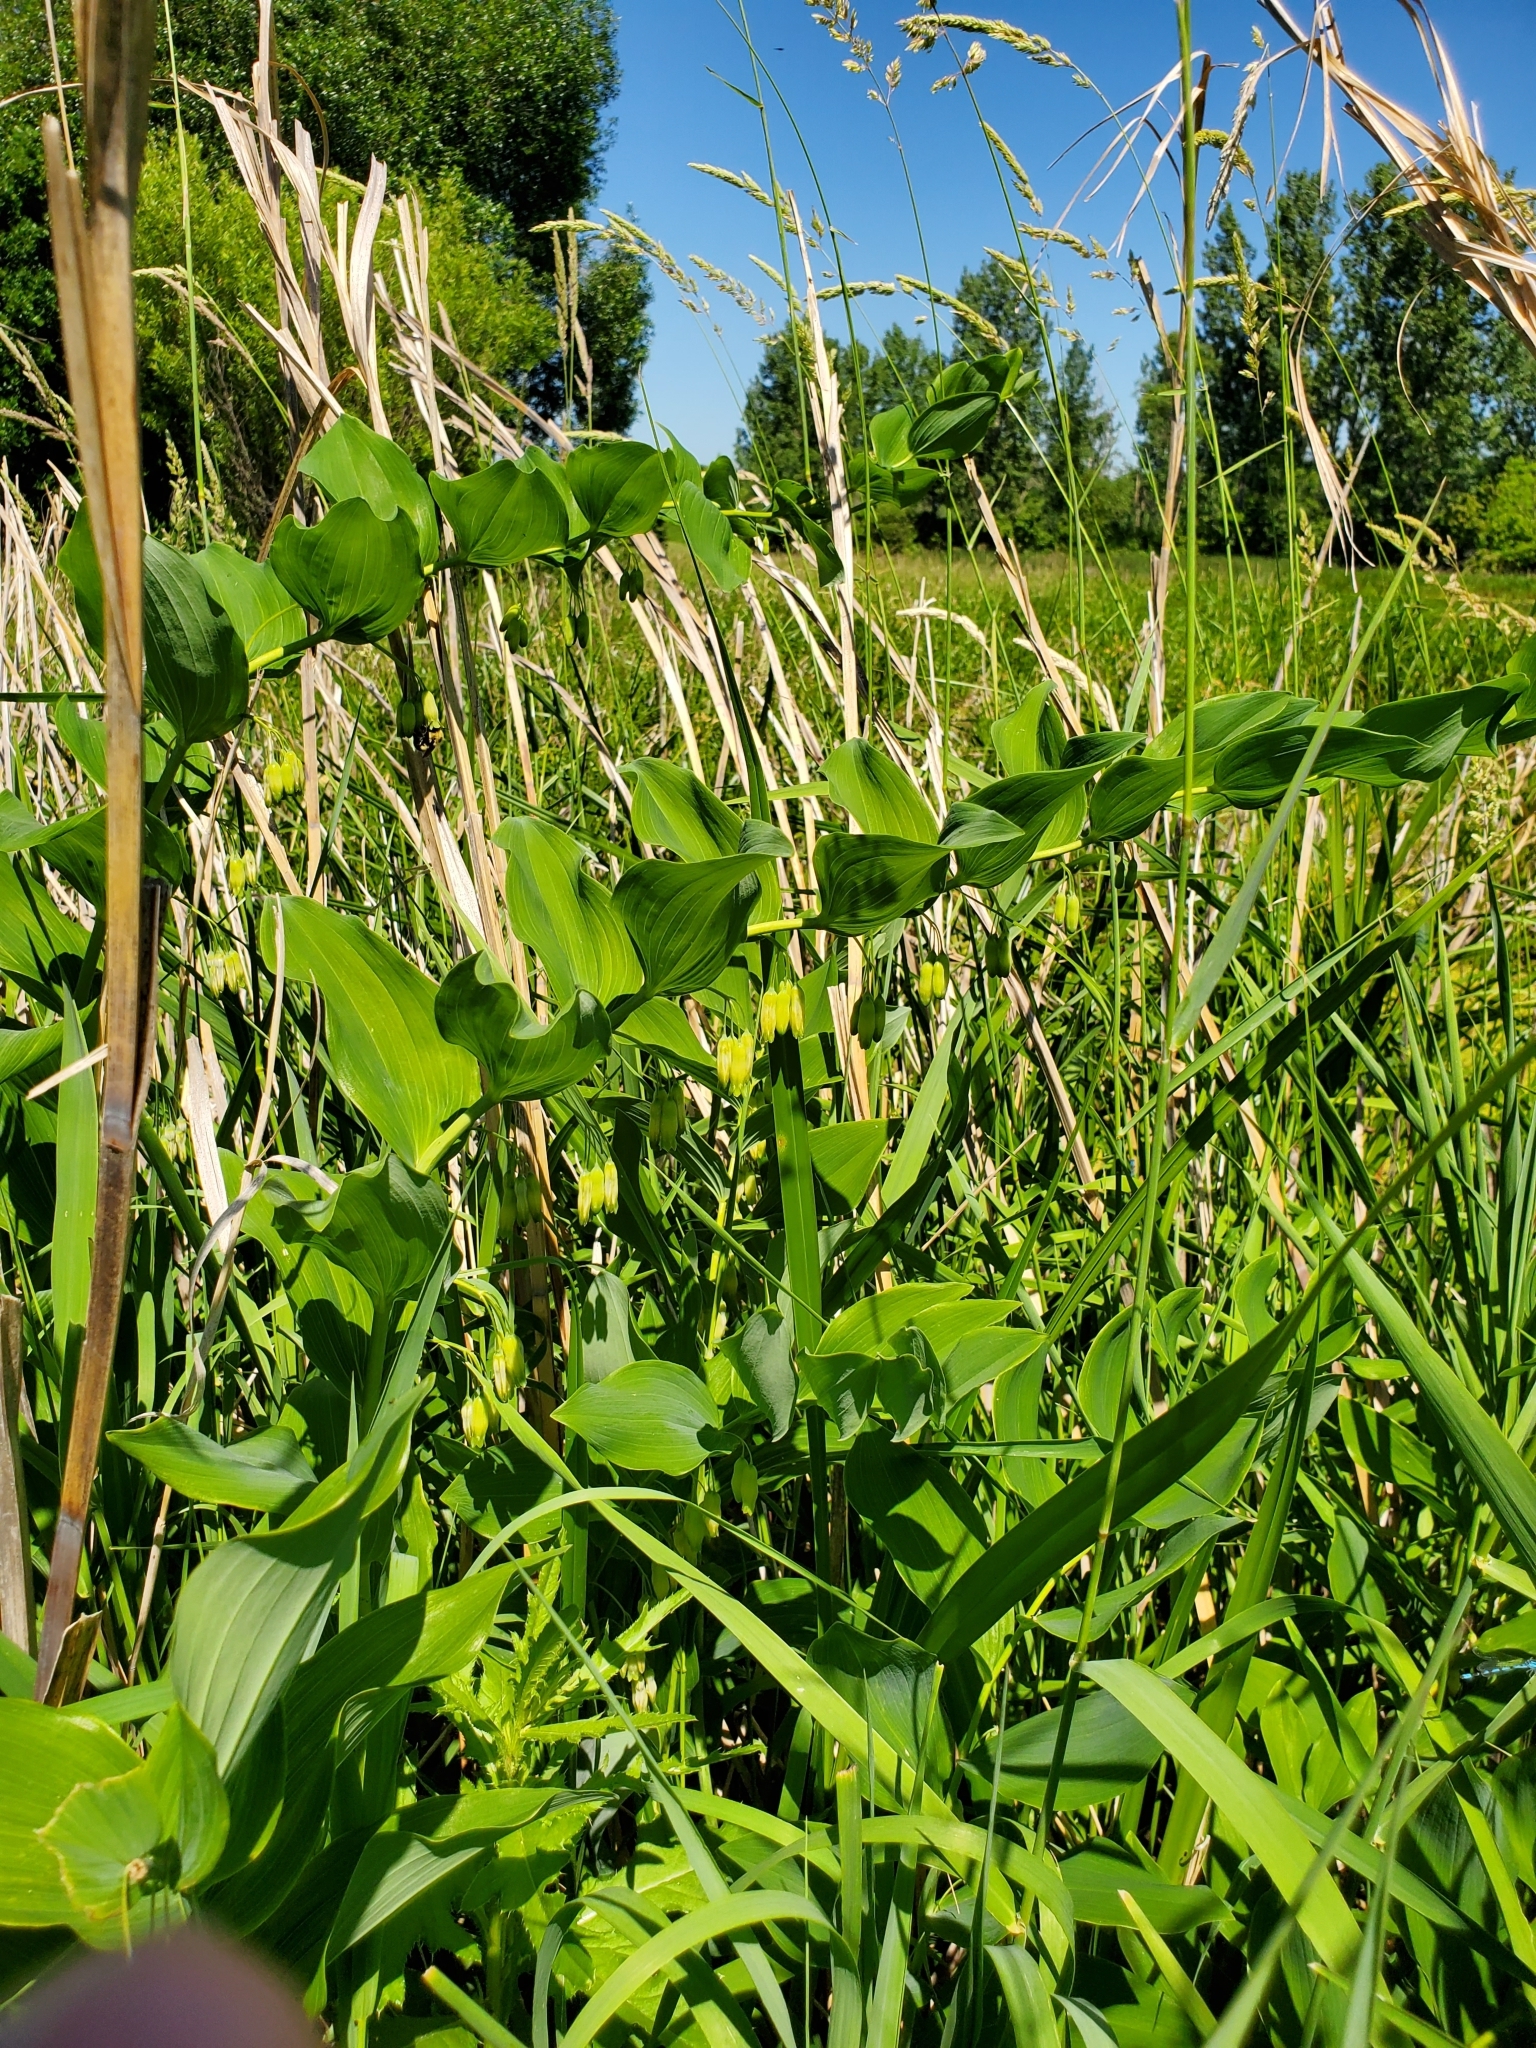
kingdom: Plantae
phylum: Tracheophyta
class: Liliopsida
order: Asparagales
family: Asparagaceae
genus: Polygonatum
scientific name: Polygonatum biflorum
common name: American solomon's-seal
